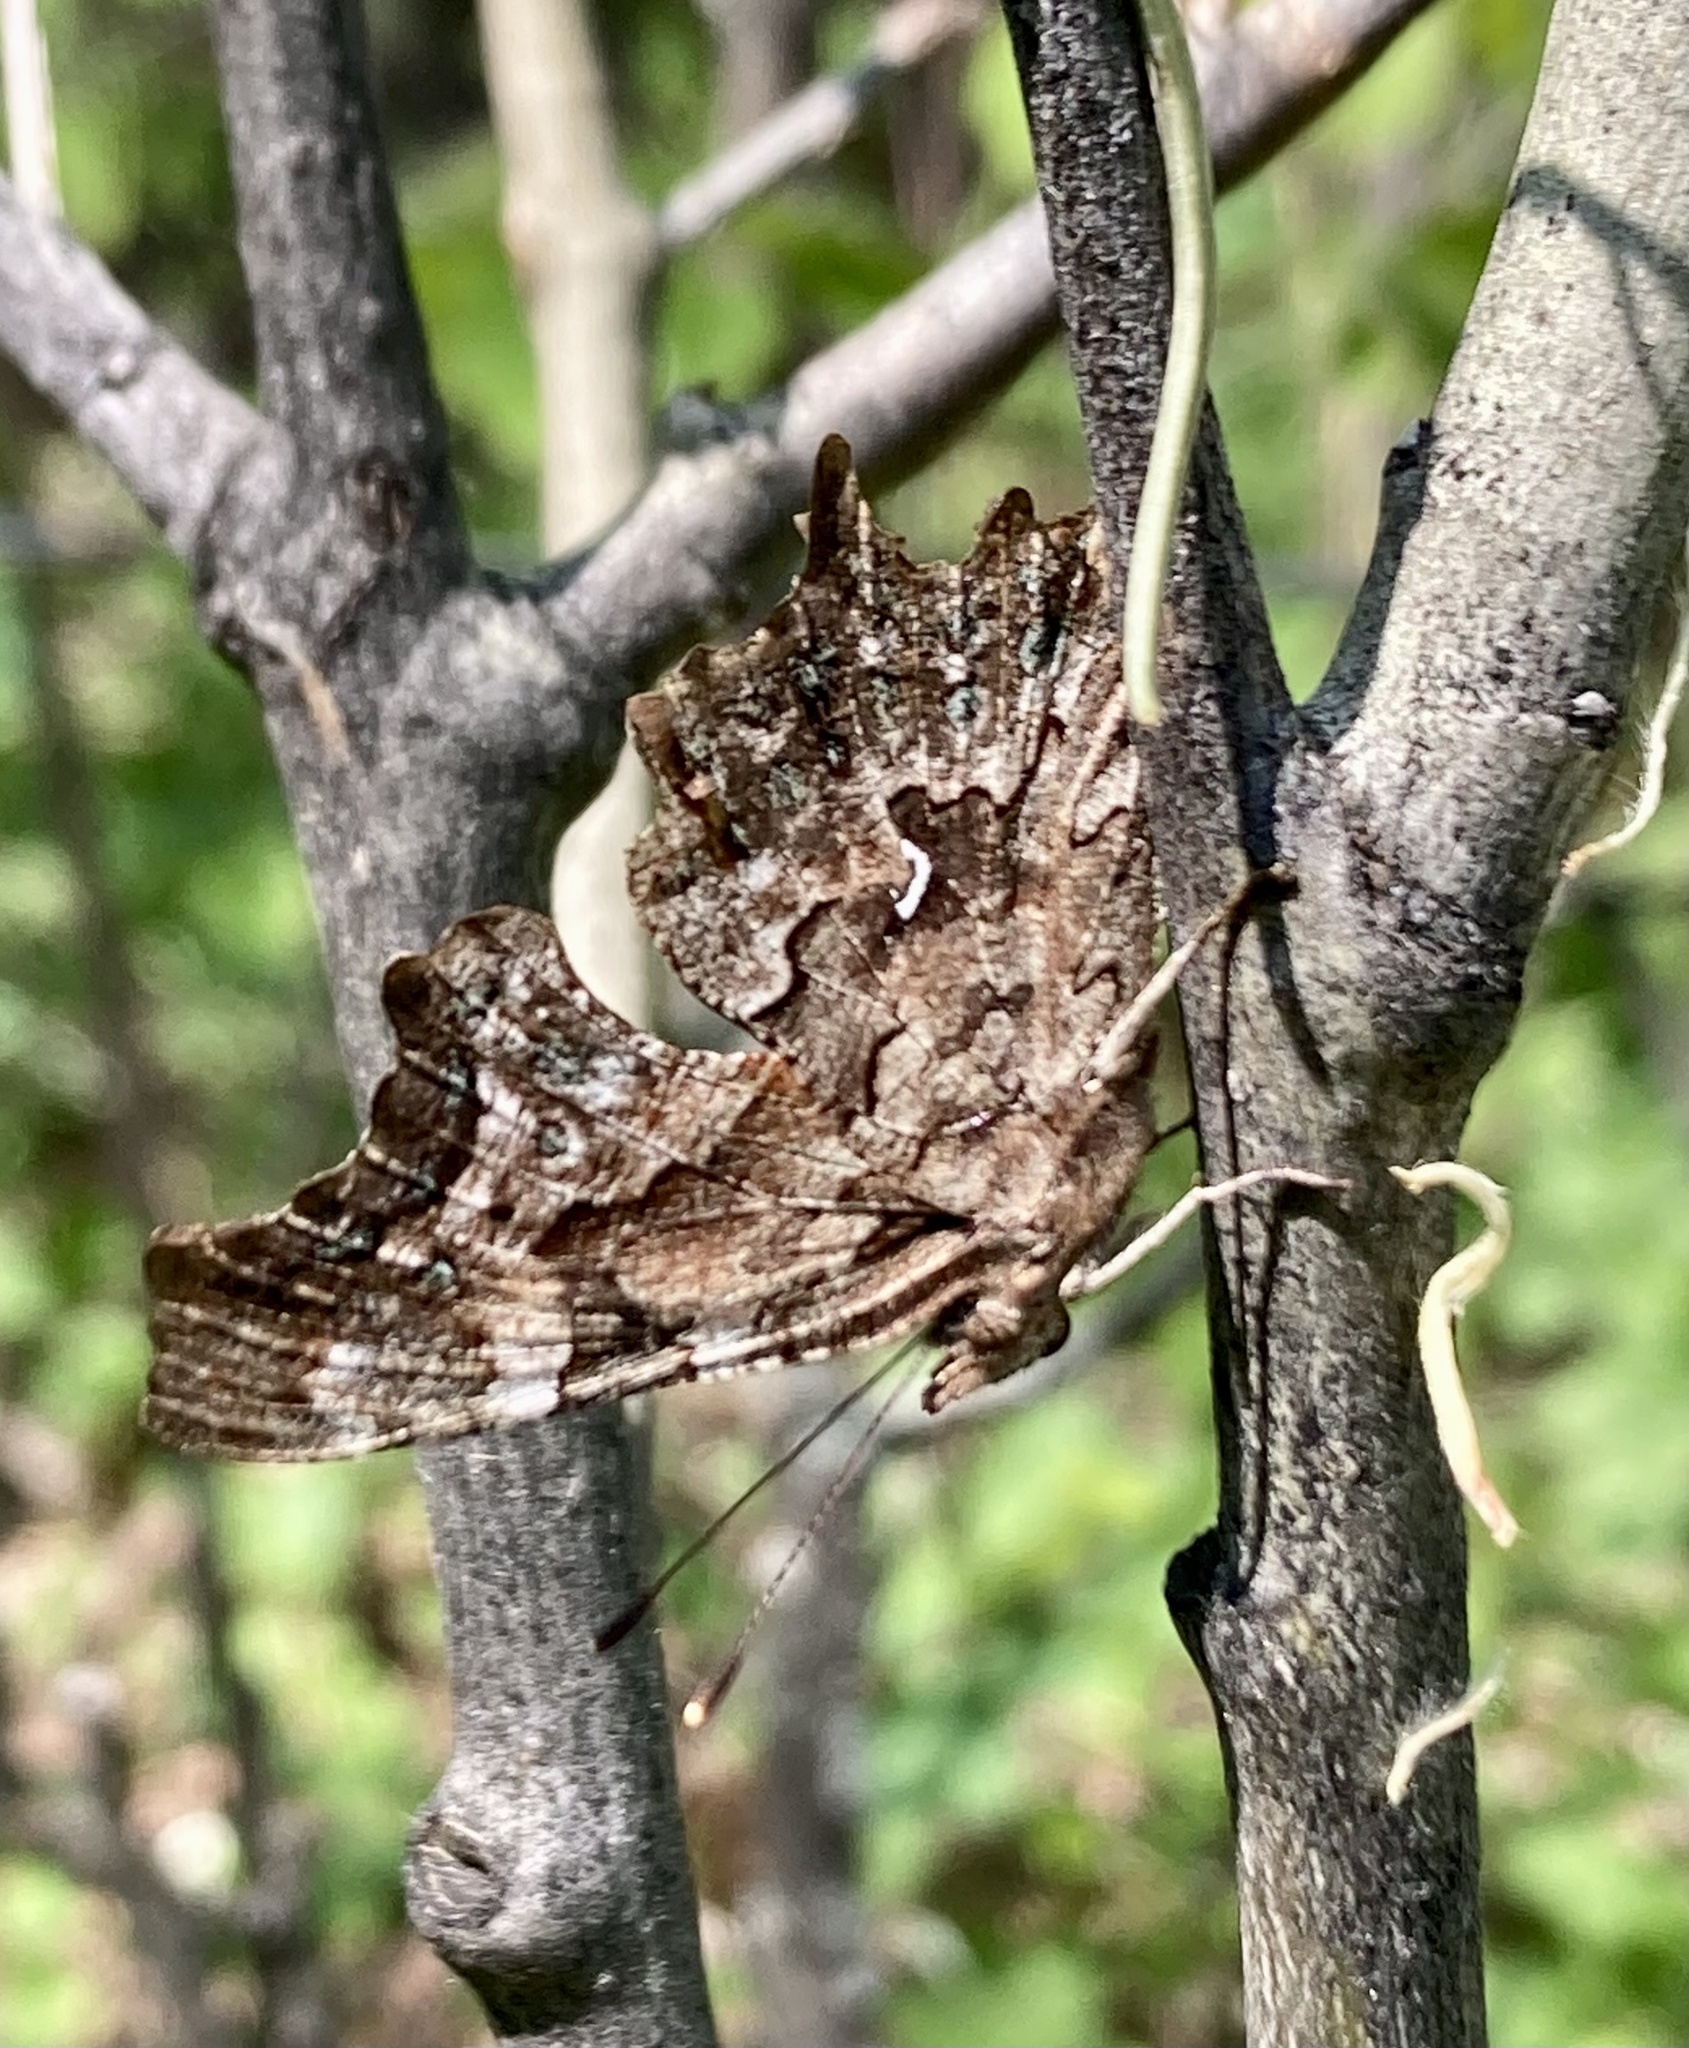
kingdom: Animalia
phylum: Arthropoda
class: Insecta
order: Lepidoptera
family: Nymphalidae
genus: Polygonia
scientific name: Polygonia faunus
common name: Green comma
